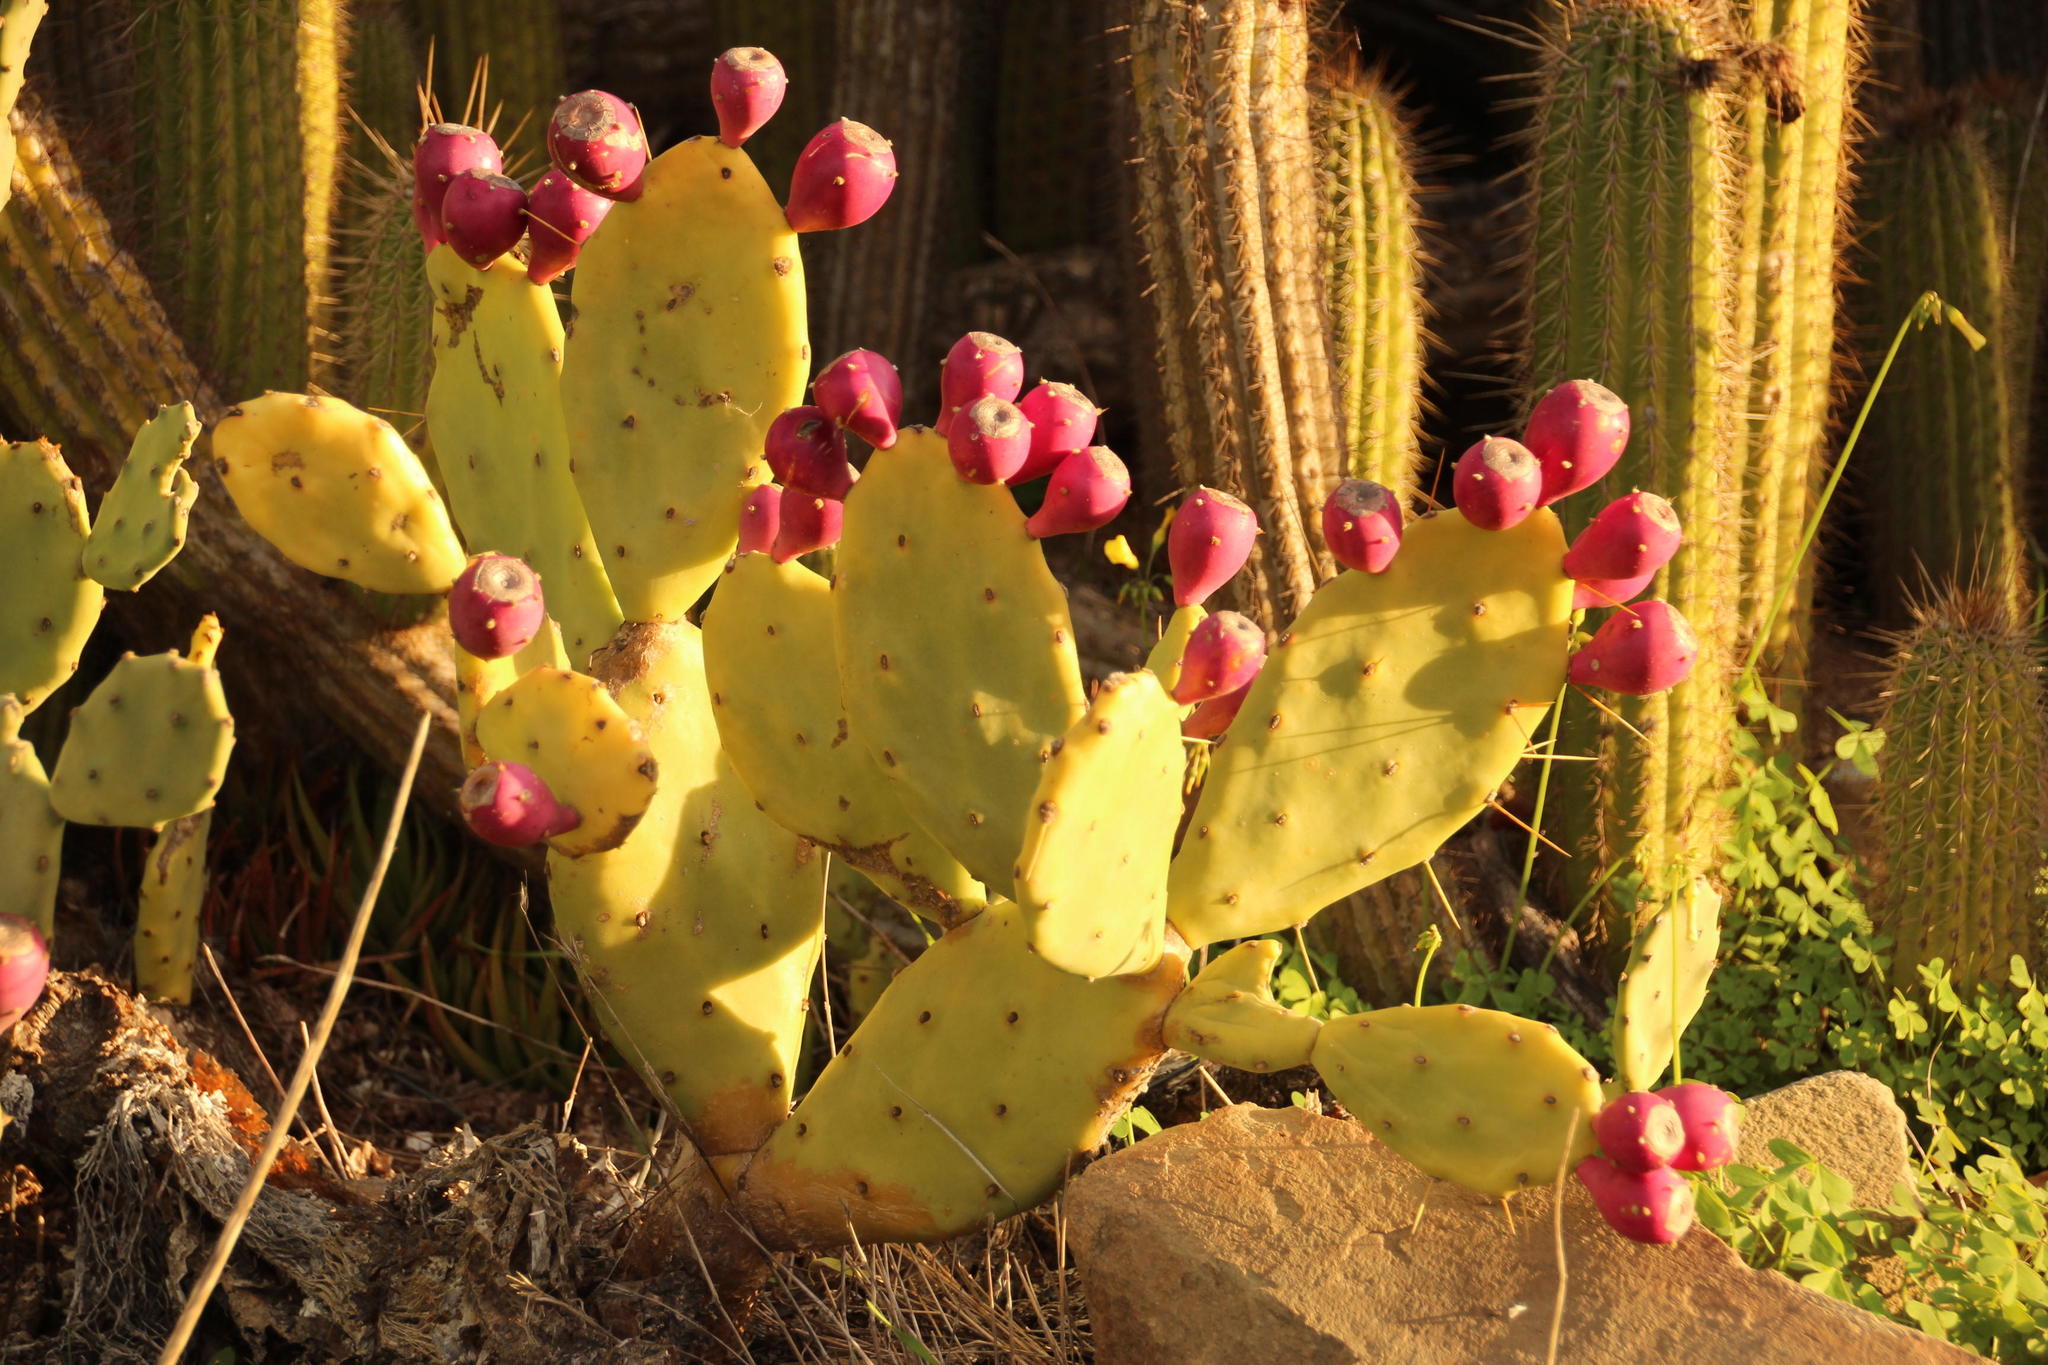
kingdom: Plantae
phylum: Tracheophyta
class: Magnoliopsida
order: Caryophyllales
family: Cactaceae
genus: Opuntia
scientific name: Opuntia stricta
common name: Erect pricklypear
